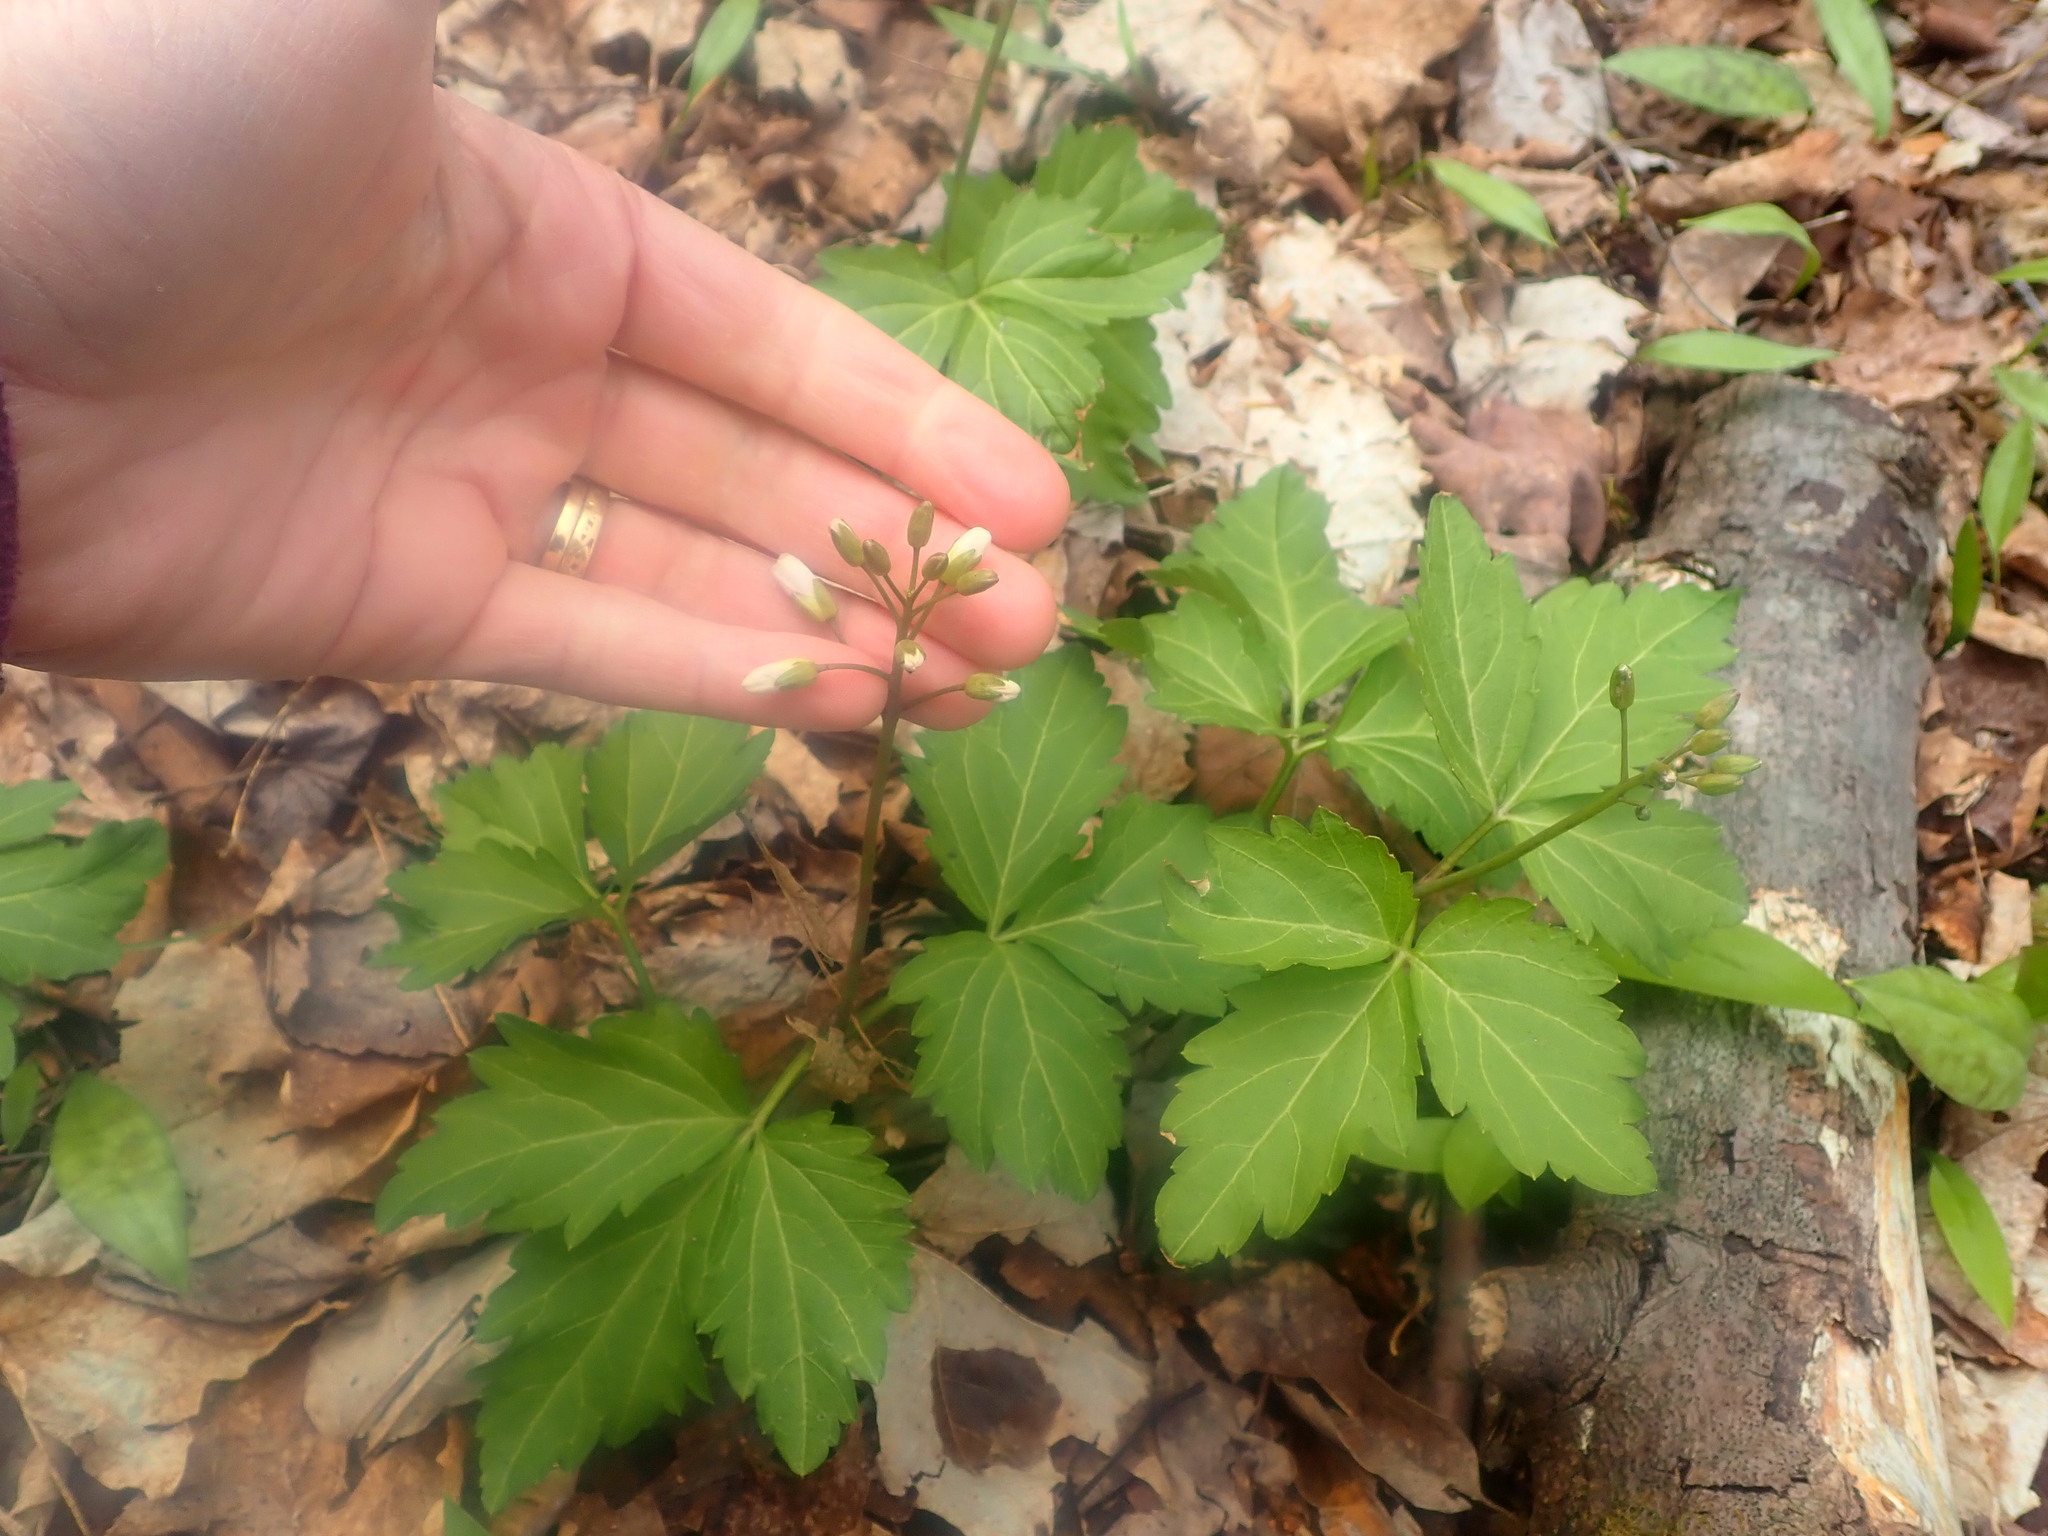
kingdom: Plantae
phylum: Tracheophyta
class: Magnoliopsida
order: Brassicales
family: Brassicaceae
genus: Cardamine
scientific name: Cardamine diphylla
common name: Broad-leaved toothwort
